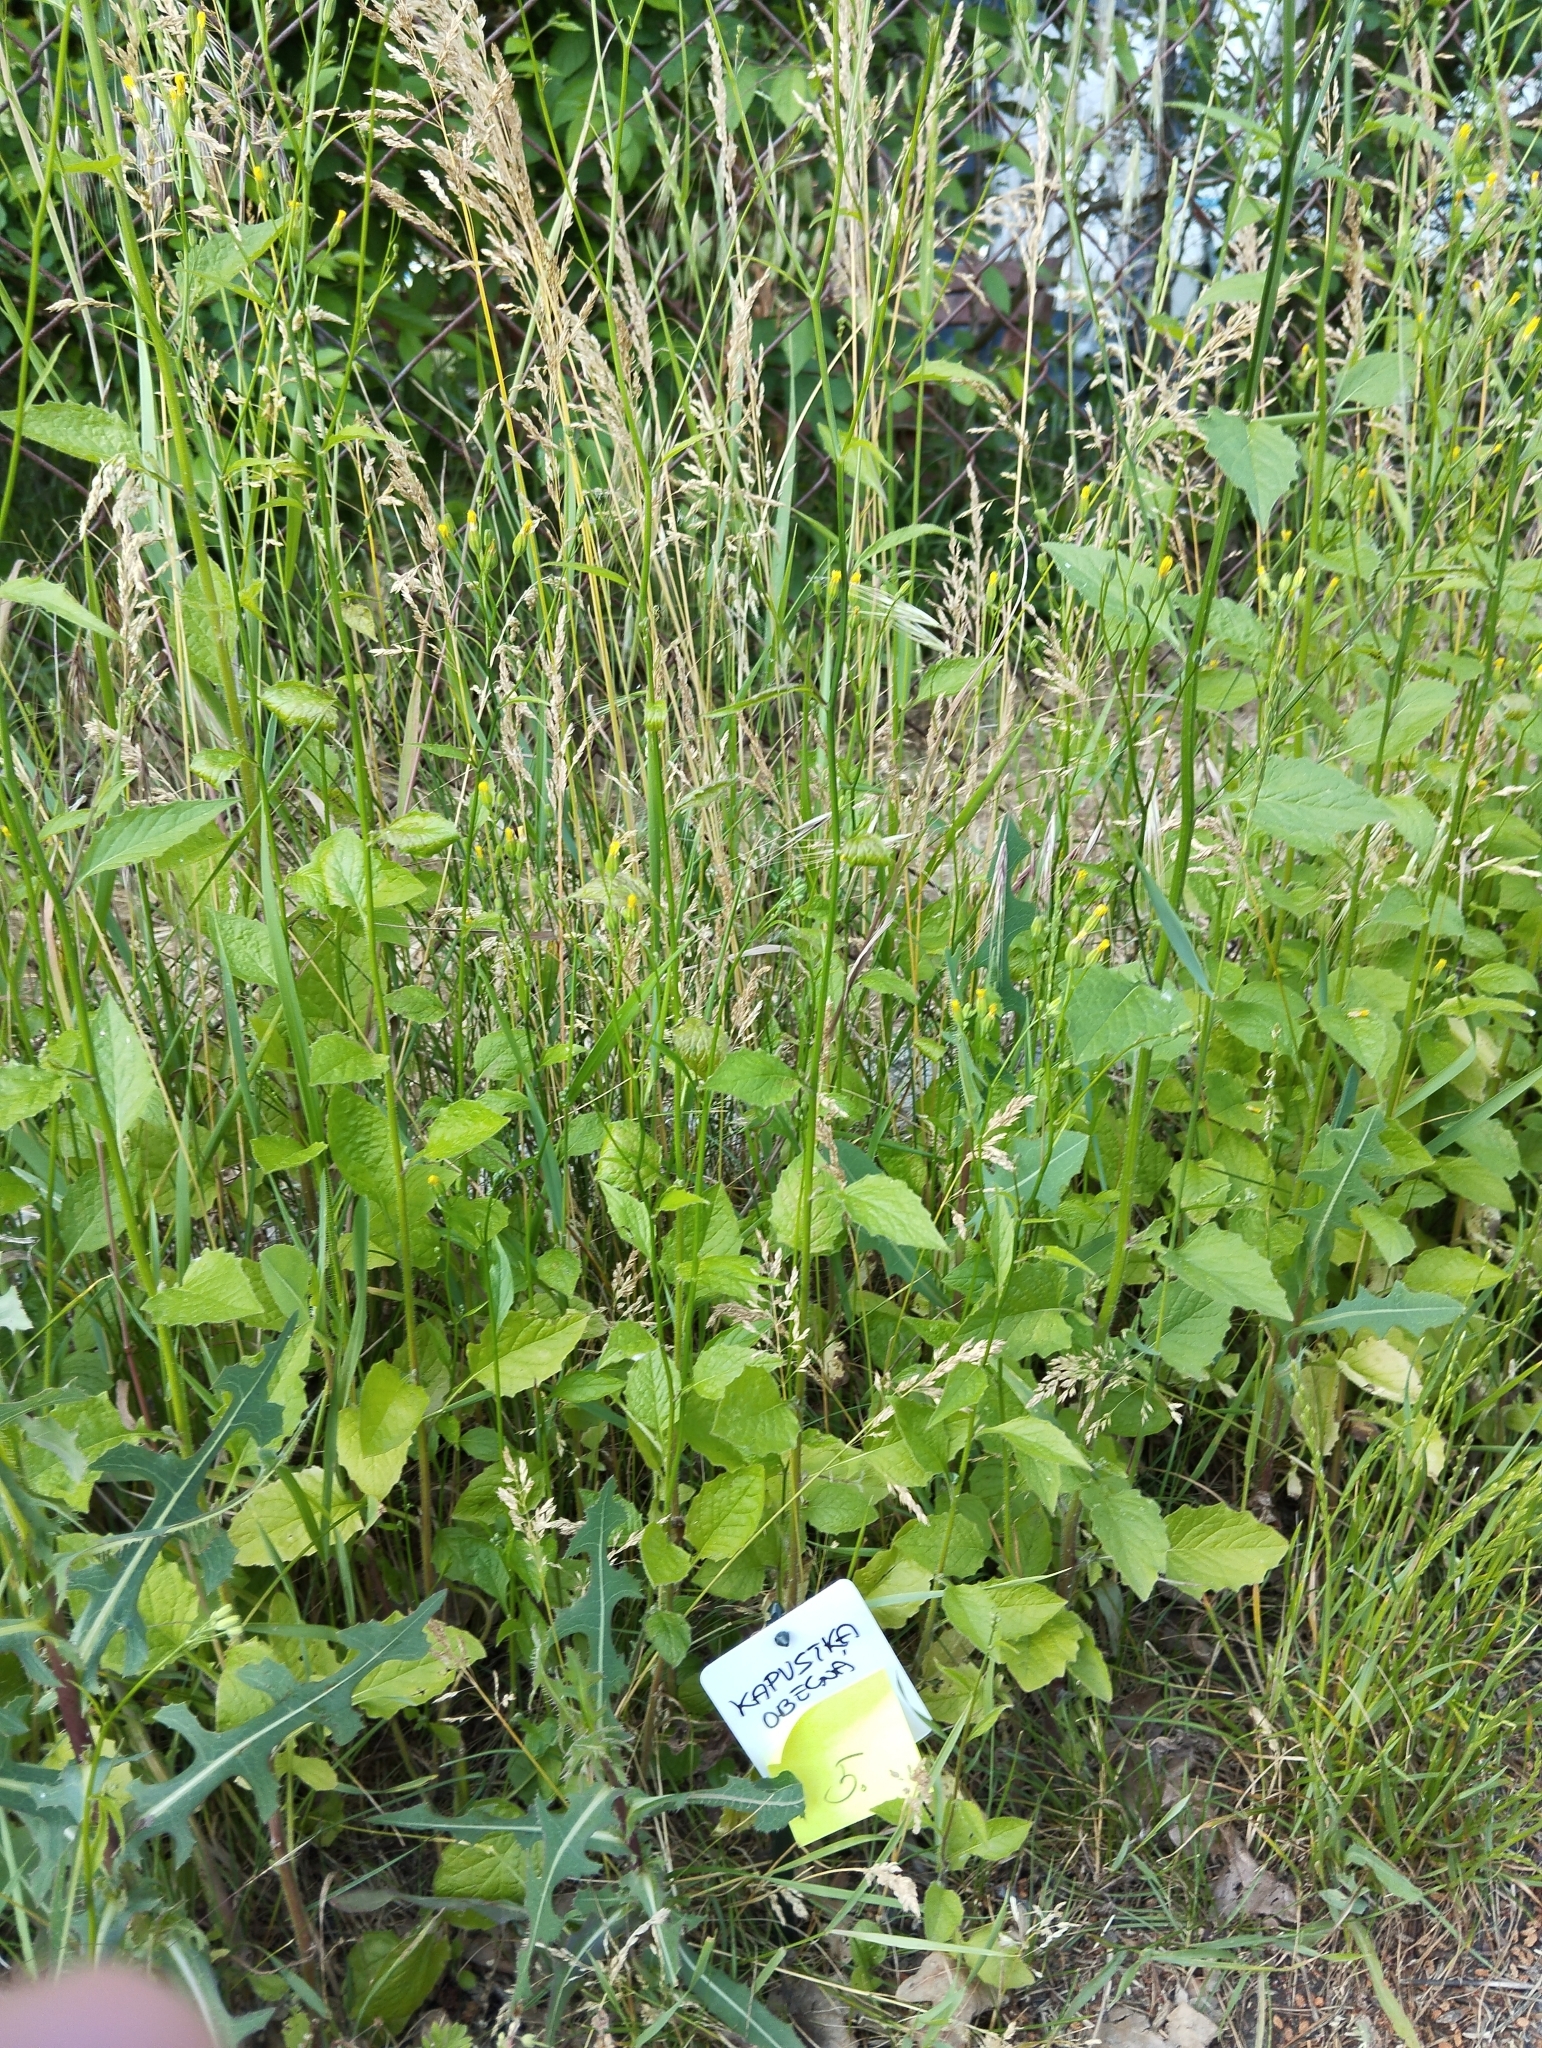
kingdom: Plantae
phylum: Tracheophyta
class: Magnoliopsida
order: Asterales
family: Asteraceae
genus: Lapsana
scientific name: Lapsana communis
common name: Nipplewort
